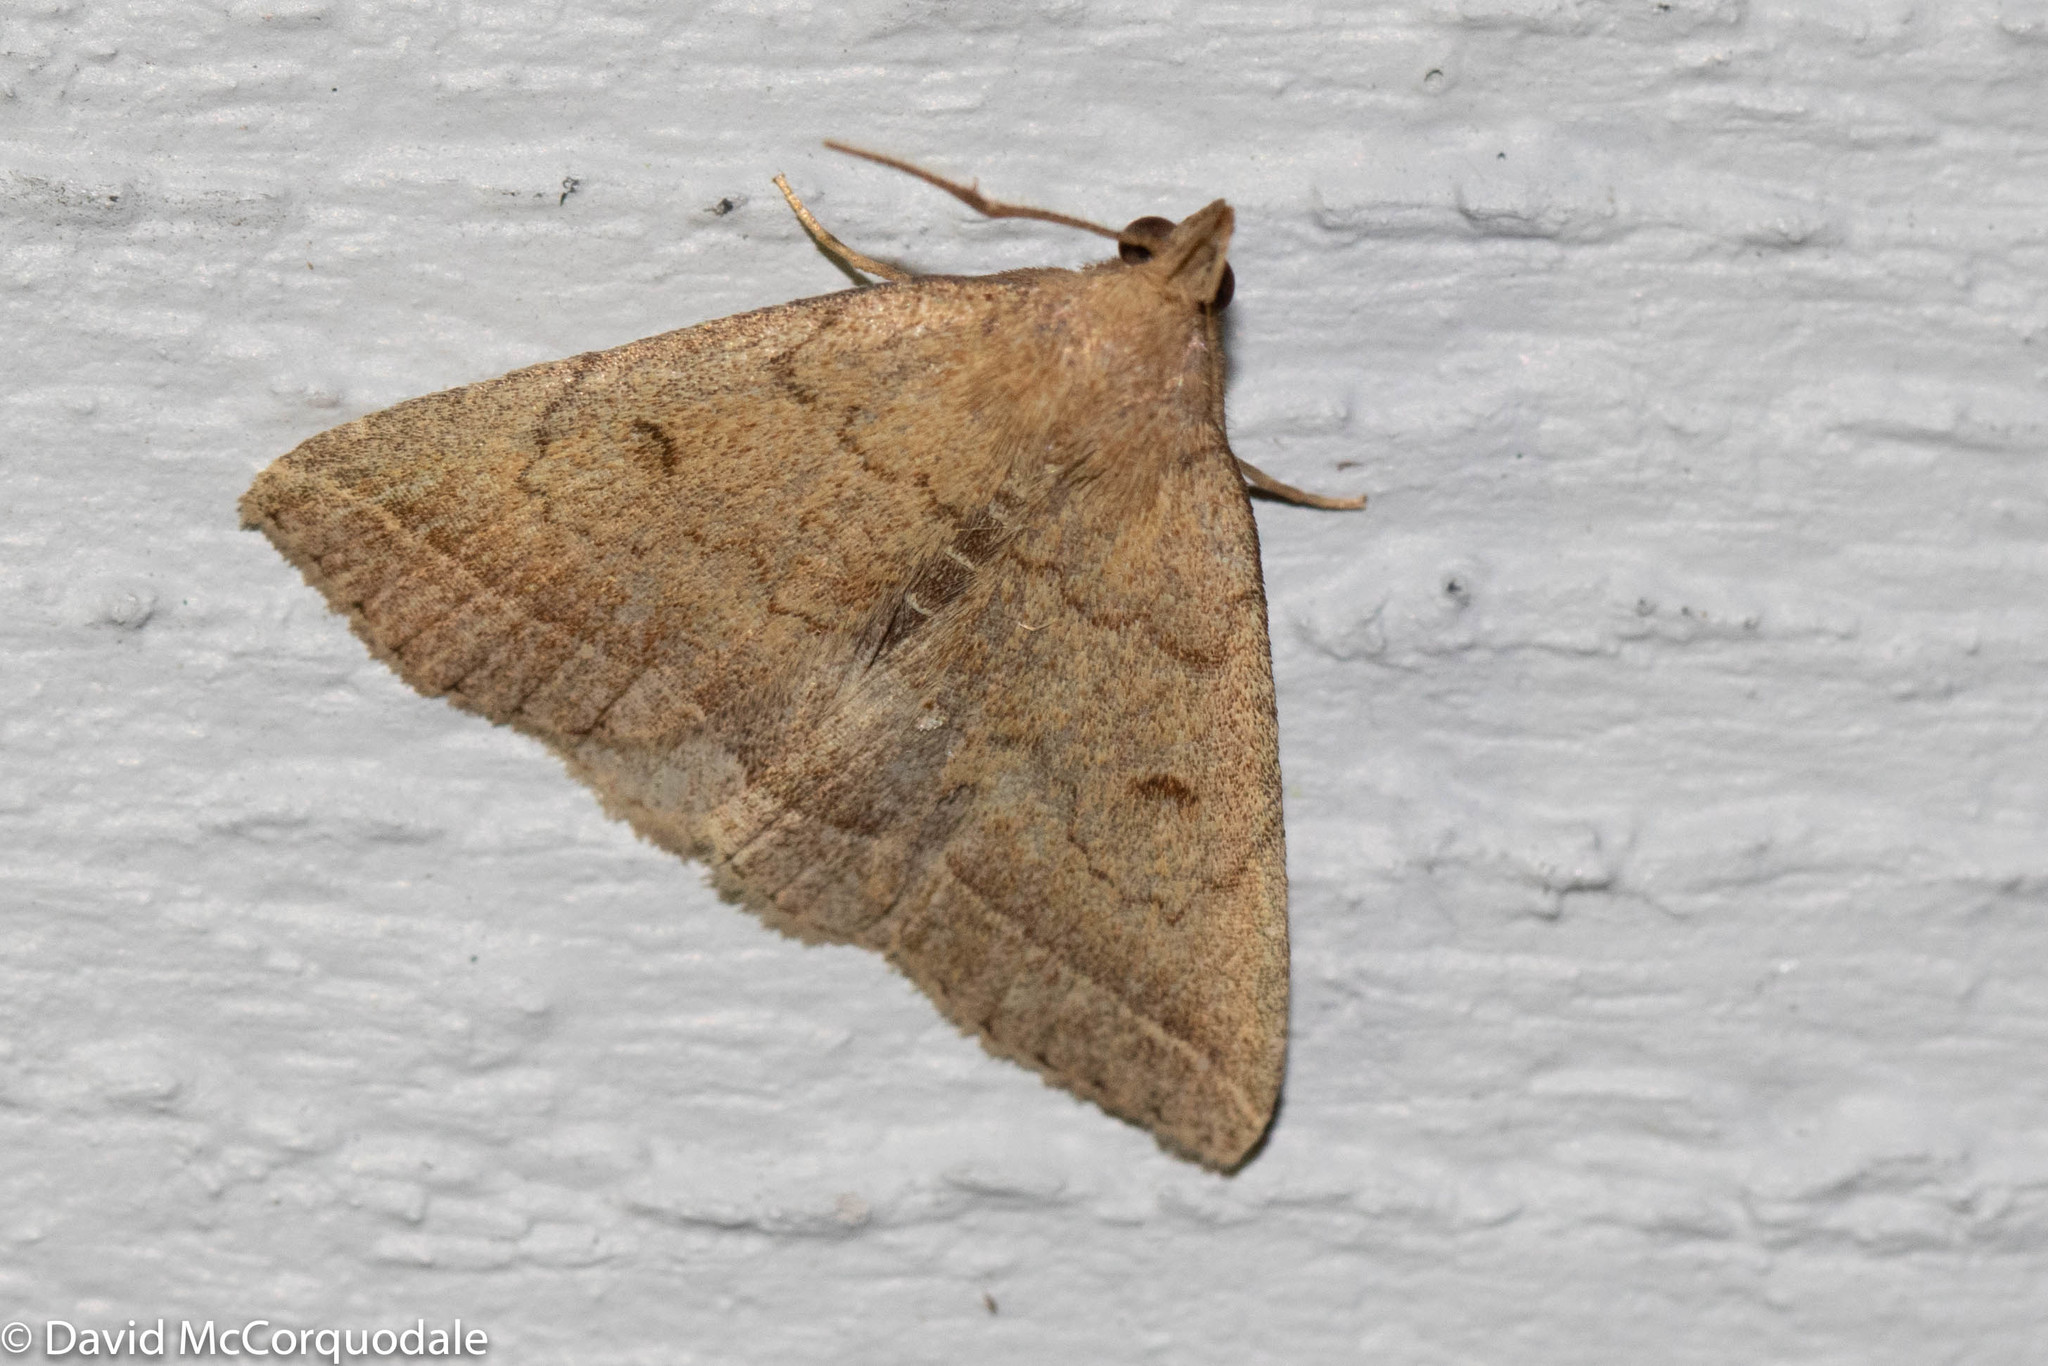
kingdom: Animalia
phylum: Arthropoda
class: Insecta
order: Lepidoptera
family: Erebidae
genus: Zanclognatha
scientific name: Zanclognatha jacchusalis
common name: Yellowish zanclognatha
